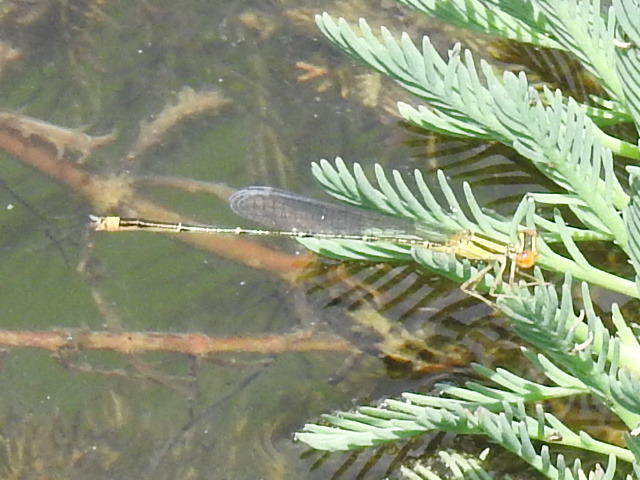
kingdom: Animalia
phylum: Arthropoda
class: Insecta
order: Odonata
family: Coenagrionidae
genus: Enallagma
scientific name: Enallagma signatum
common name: Orange bluet
